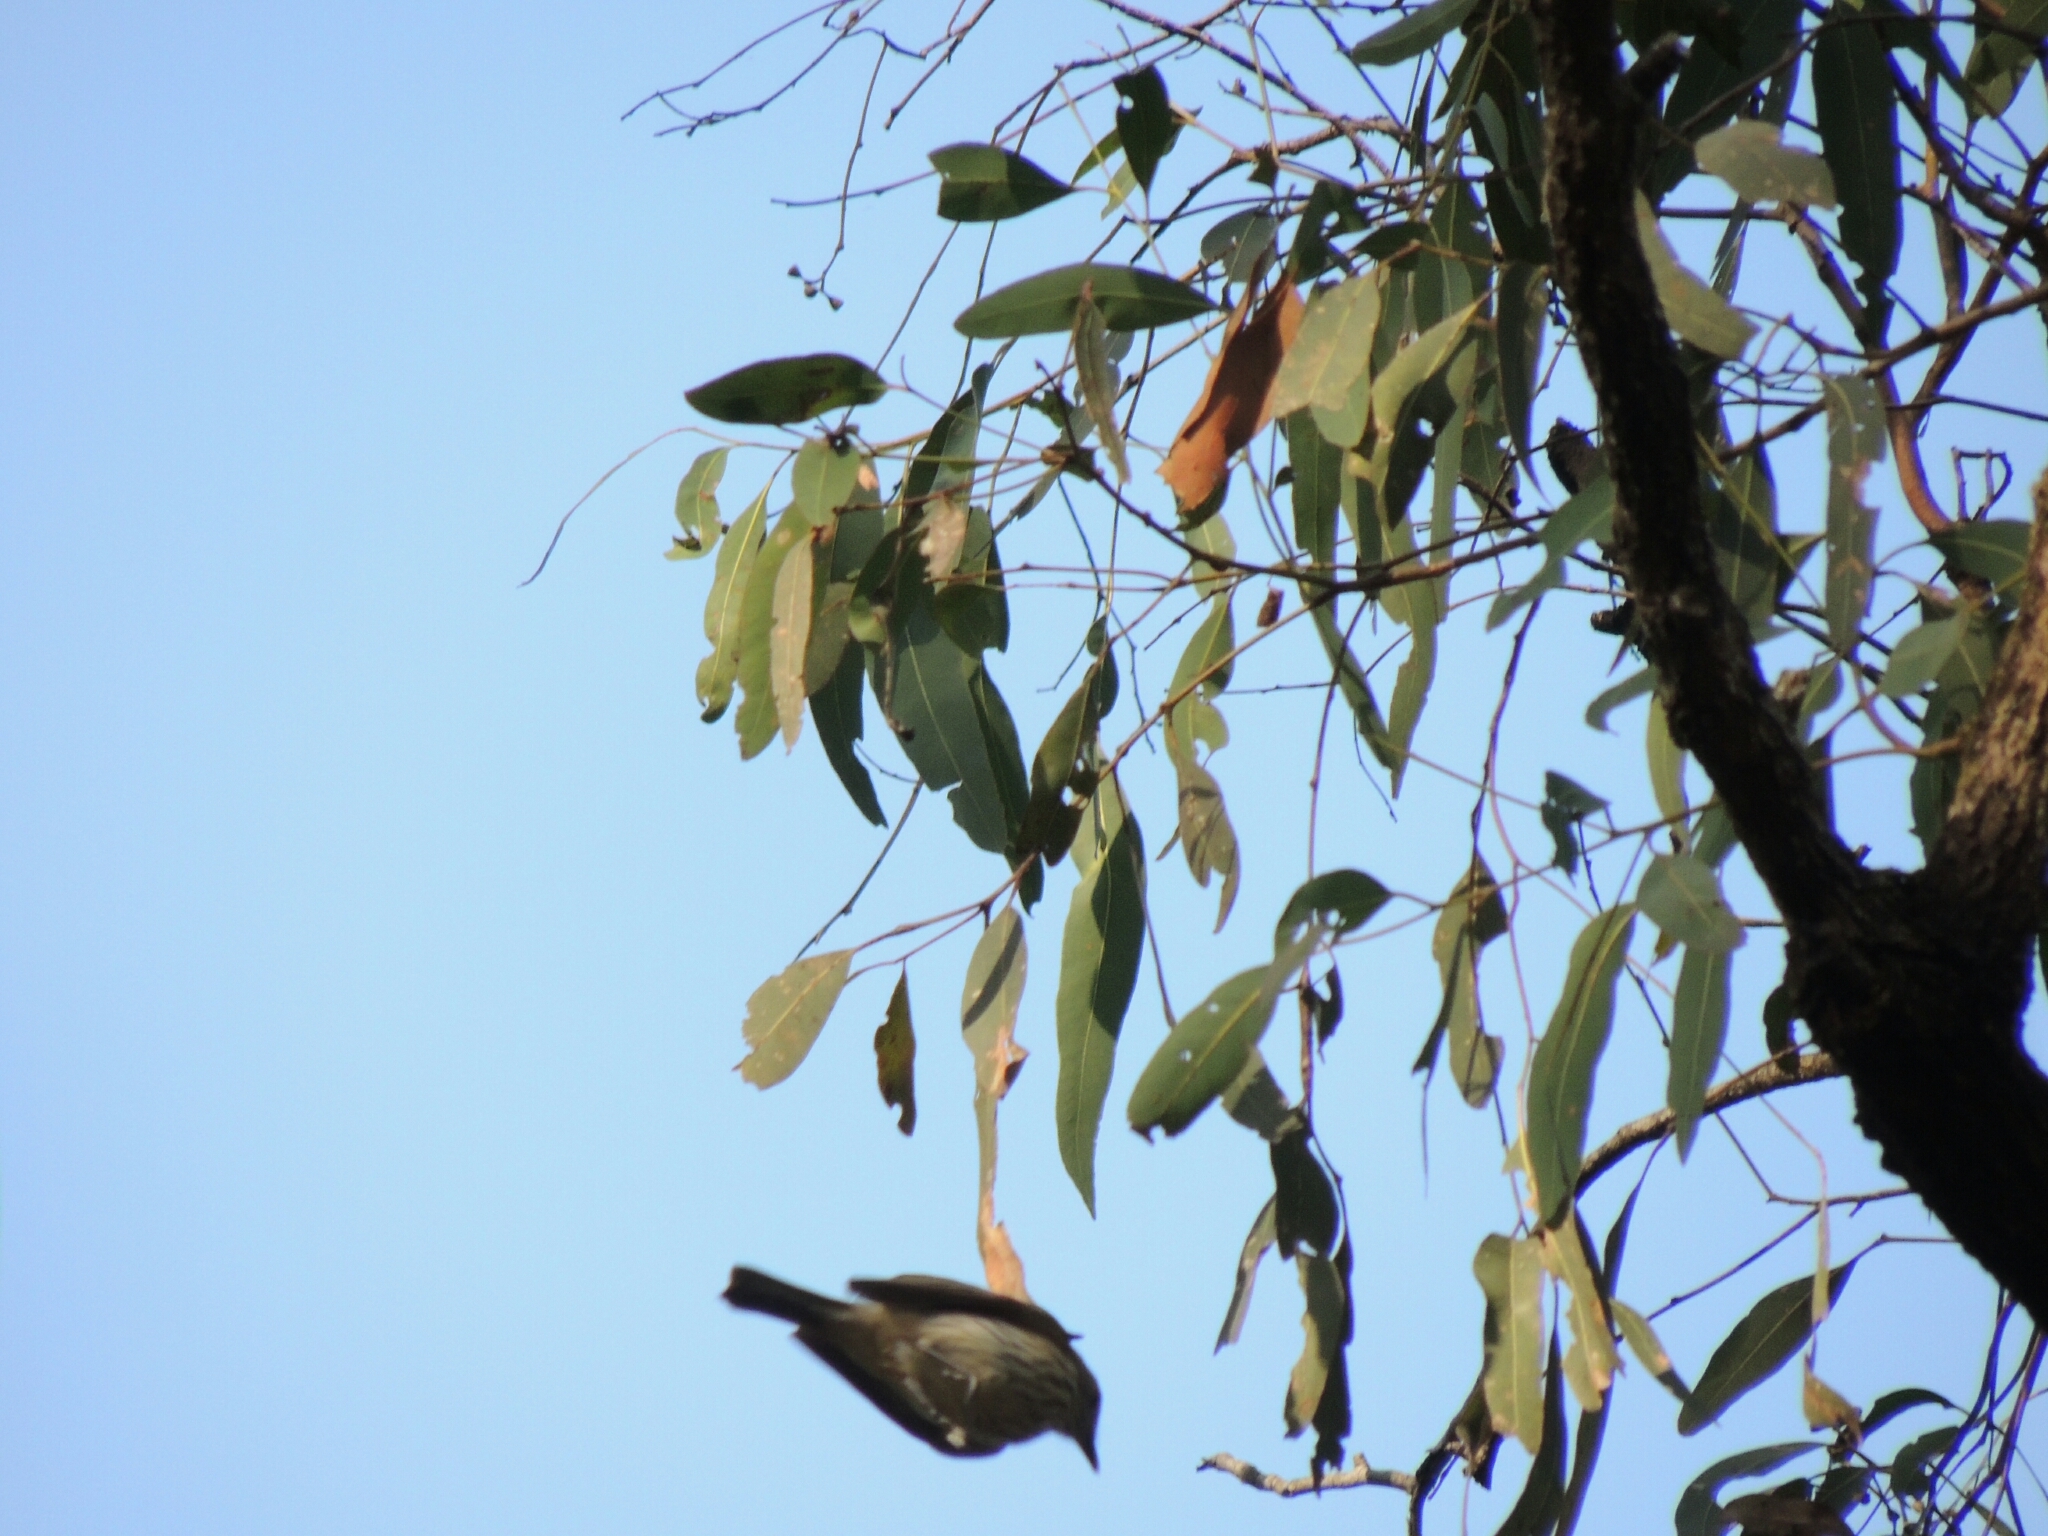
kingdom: Animalia
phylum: Chordata
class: Aves
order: Passeriformes
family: Pachycephalidae
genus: Pachycephala
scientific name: Pachycephala rufiventris
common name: Rufous whistler
